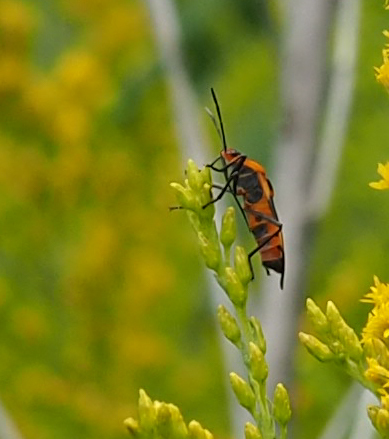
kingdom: Animalia
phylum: Arthropoda
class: Insecta
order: Hemiptera
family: Lygaeidae
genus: Oncopeltus
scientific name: Oncopeltus fasciatus
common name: Large milkweed bug
